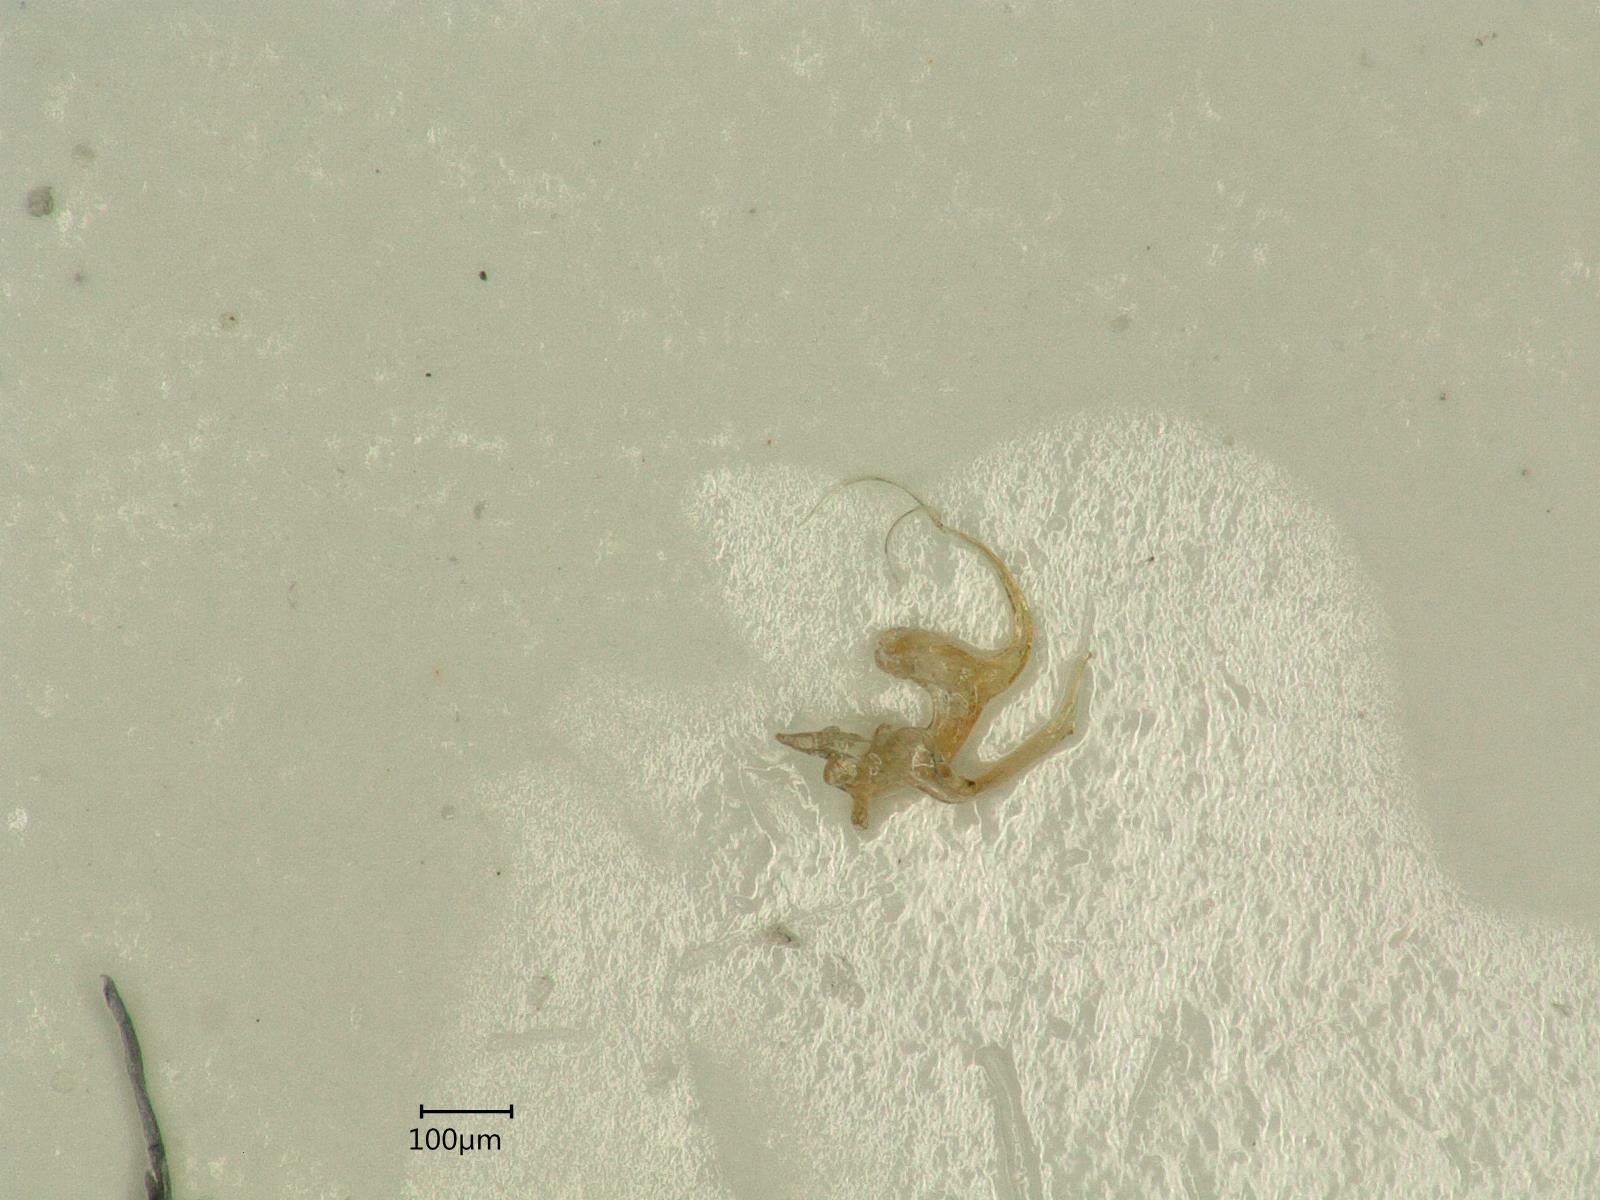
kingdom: Animalia
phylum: Arthropoda
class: Insecta
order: Hemiptera
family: Cicadellidae
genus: Eupteryx
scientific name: Eupteryx florida
